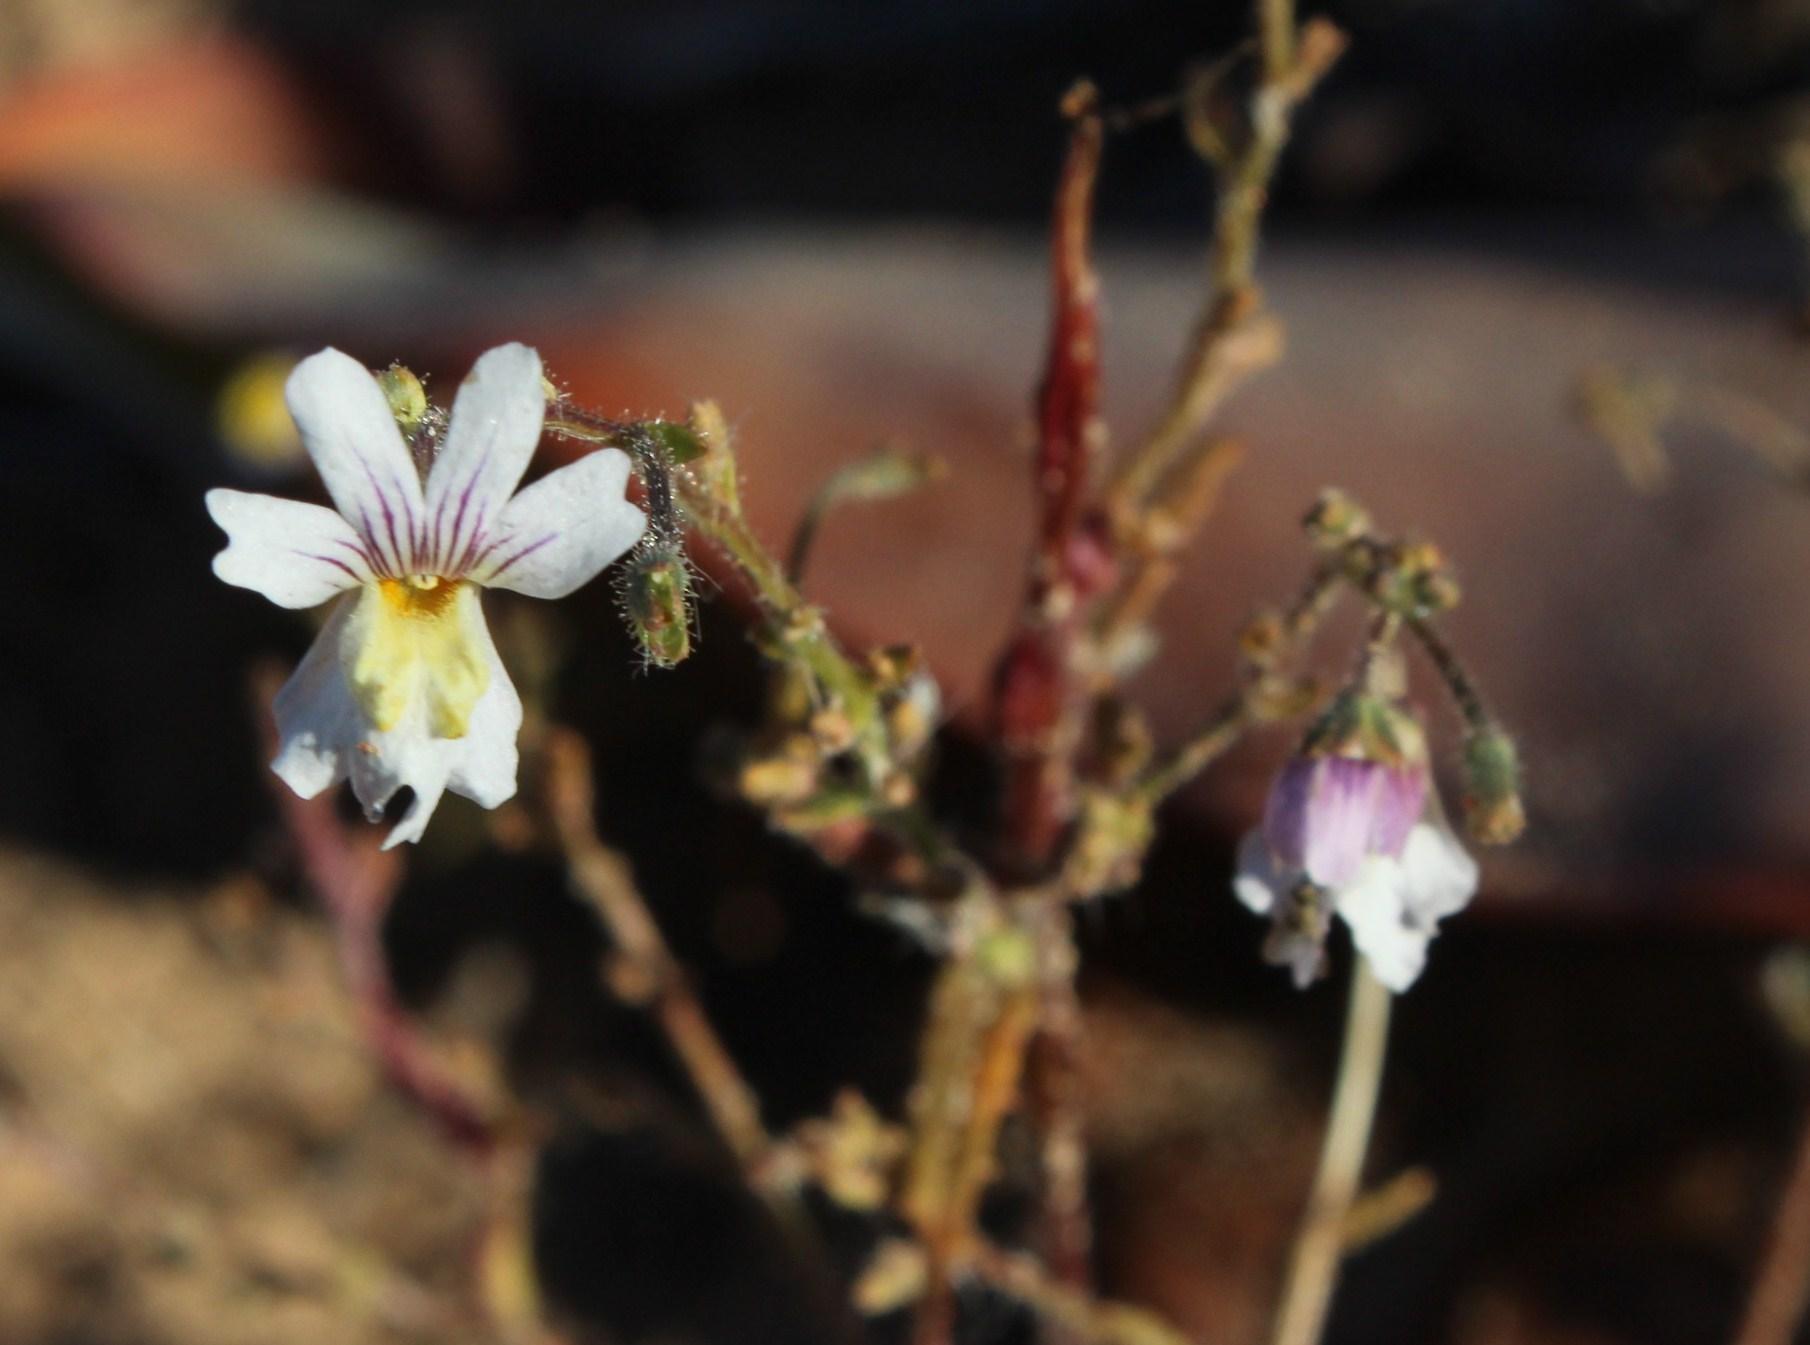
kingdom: Plantae
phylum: Tracheophyta
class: Magnoliopsida
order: Lamiales
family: Scrophulariaceae
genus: Nemesia
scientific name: Nemesia bicornis
